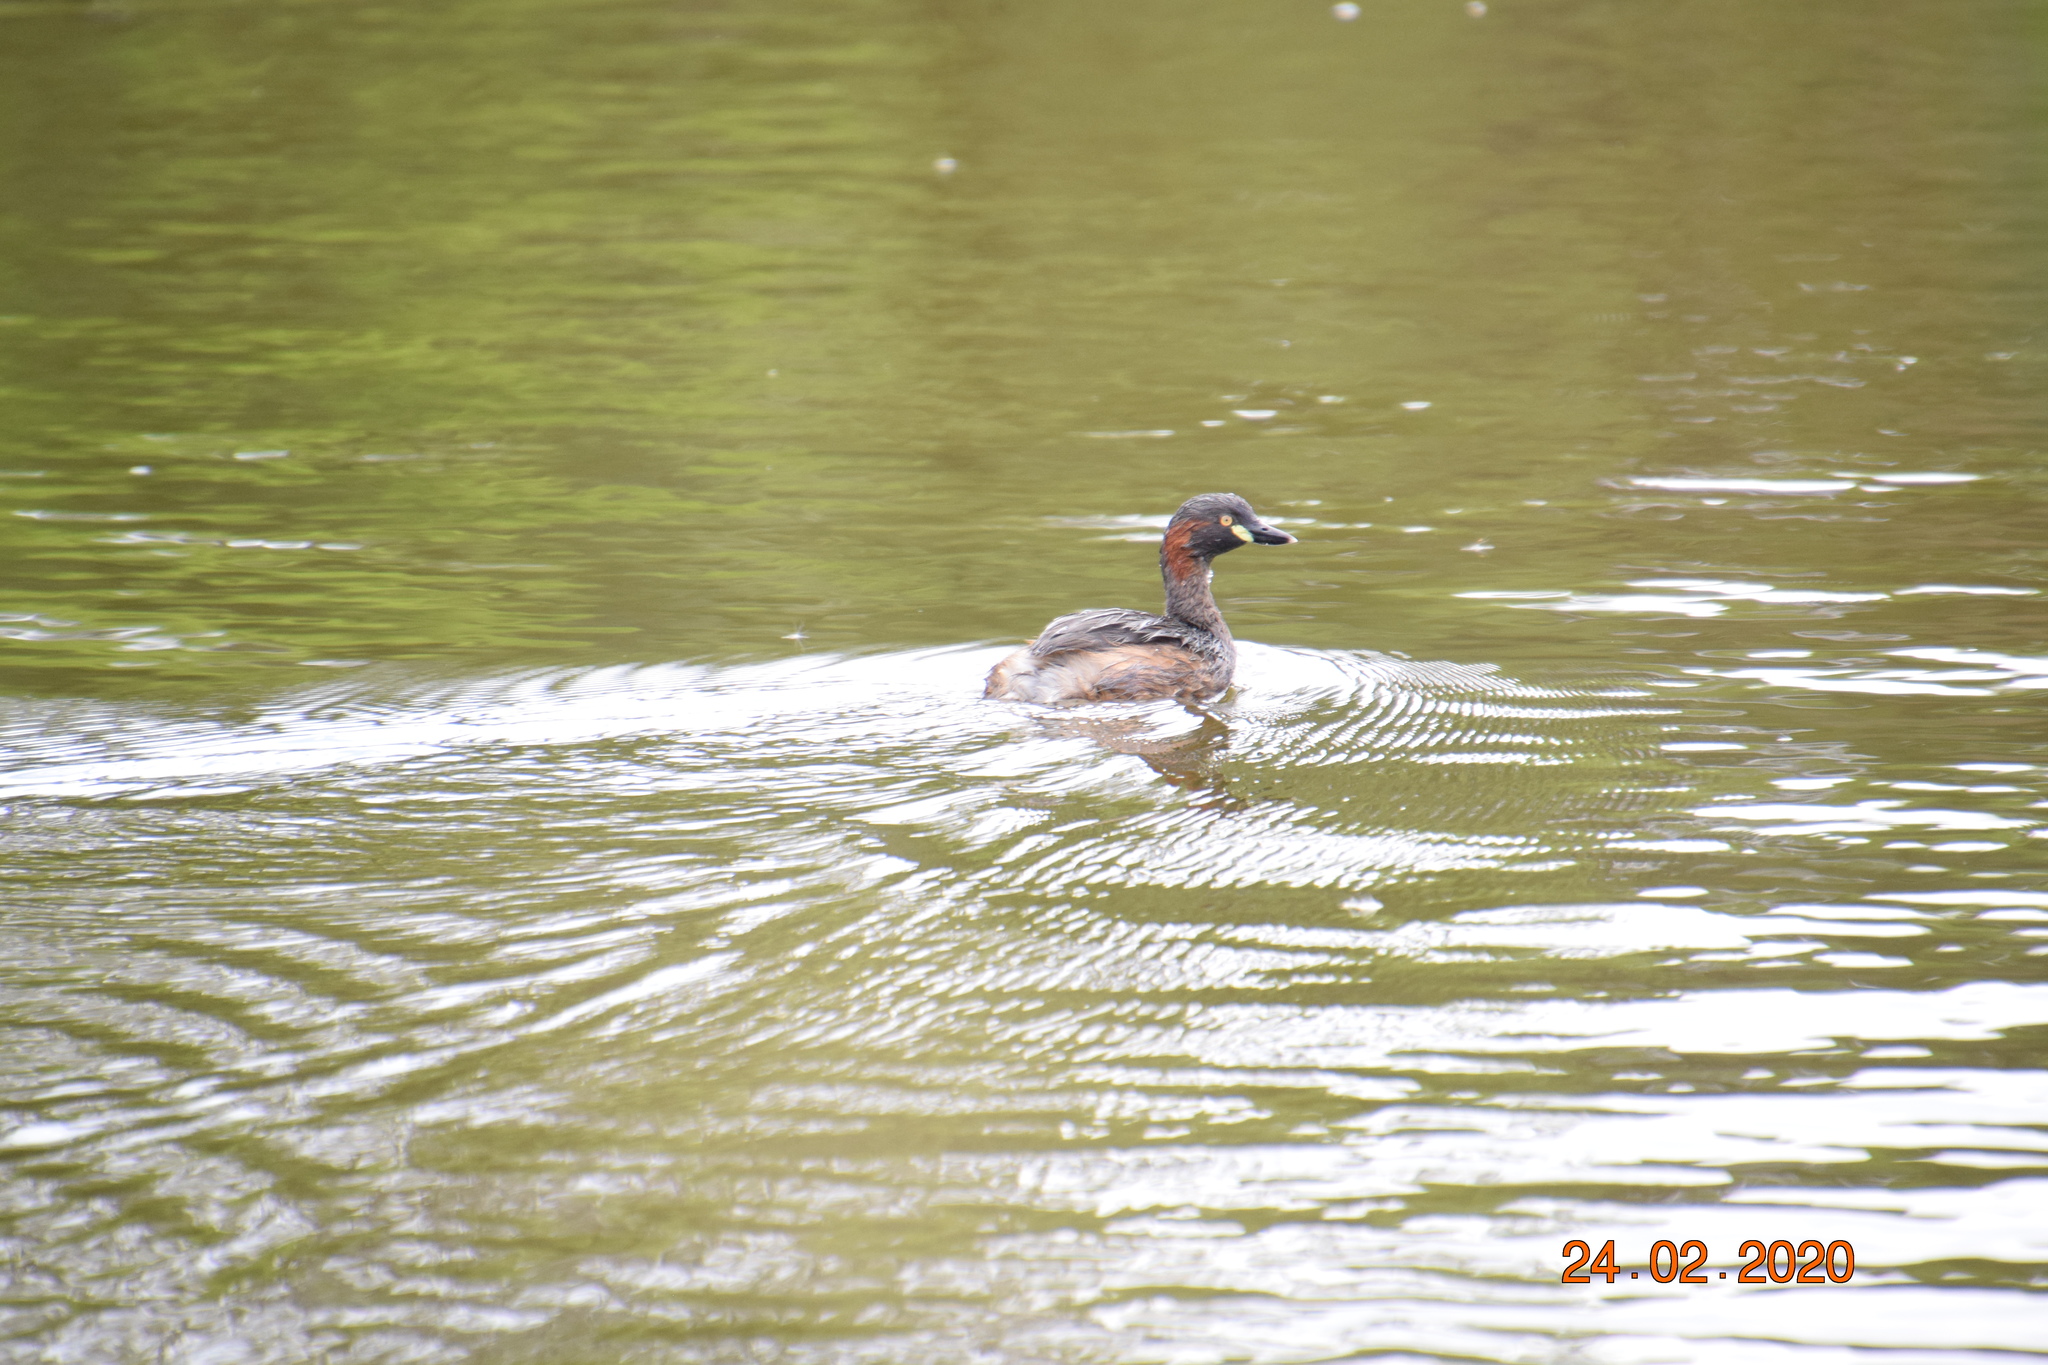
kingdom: Animalia
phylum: Chordata
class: Aves
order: Podicipediformes
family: Podicipedidae
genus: Tachybaptus
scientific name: Tachybaptus novaehollandiae
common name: Australasian grebe
